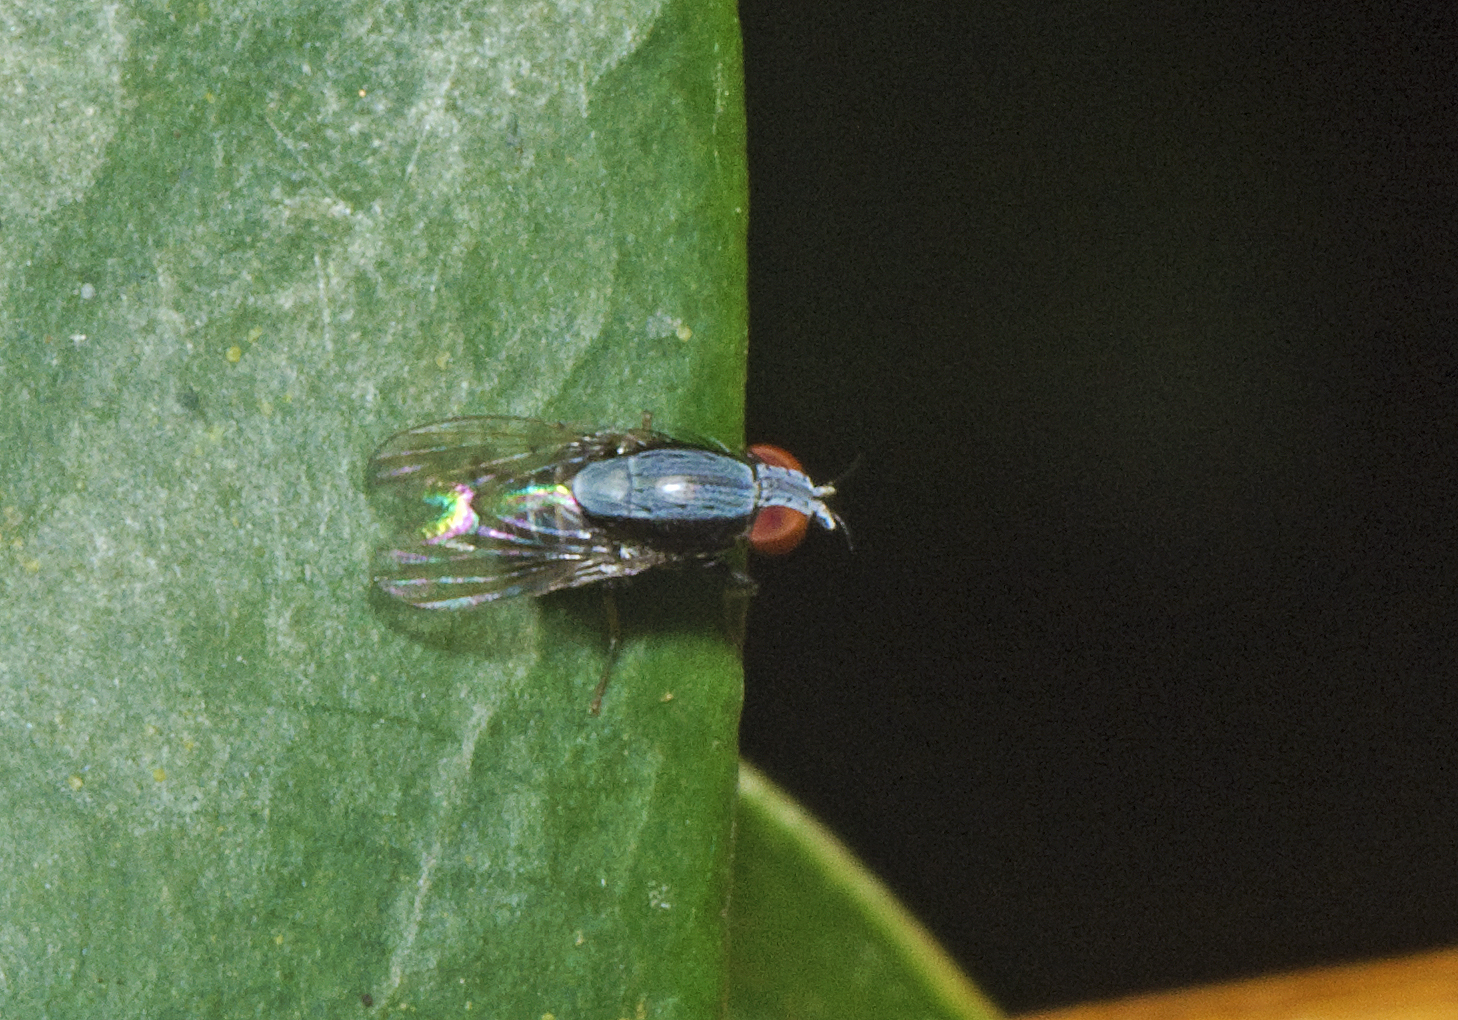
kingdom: Animalia
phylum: Arthropoda
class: Insecta
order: Diptera
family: Lauxaniidae
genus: Homoneura
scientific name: Homoneura discoglauca
